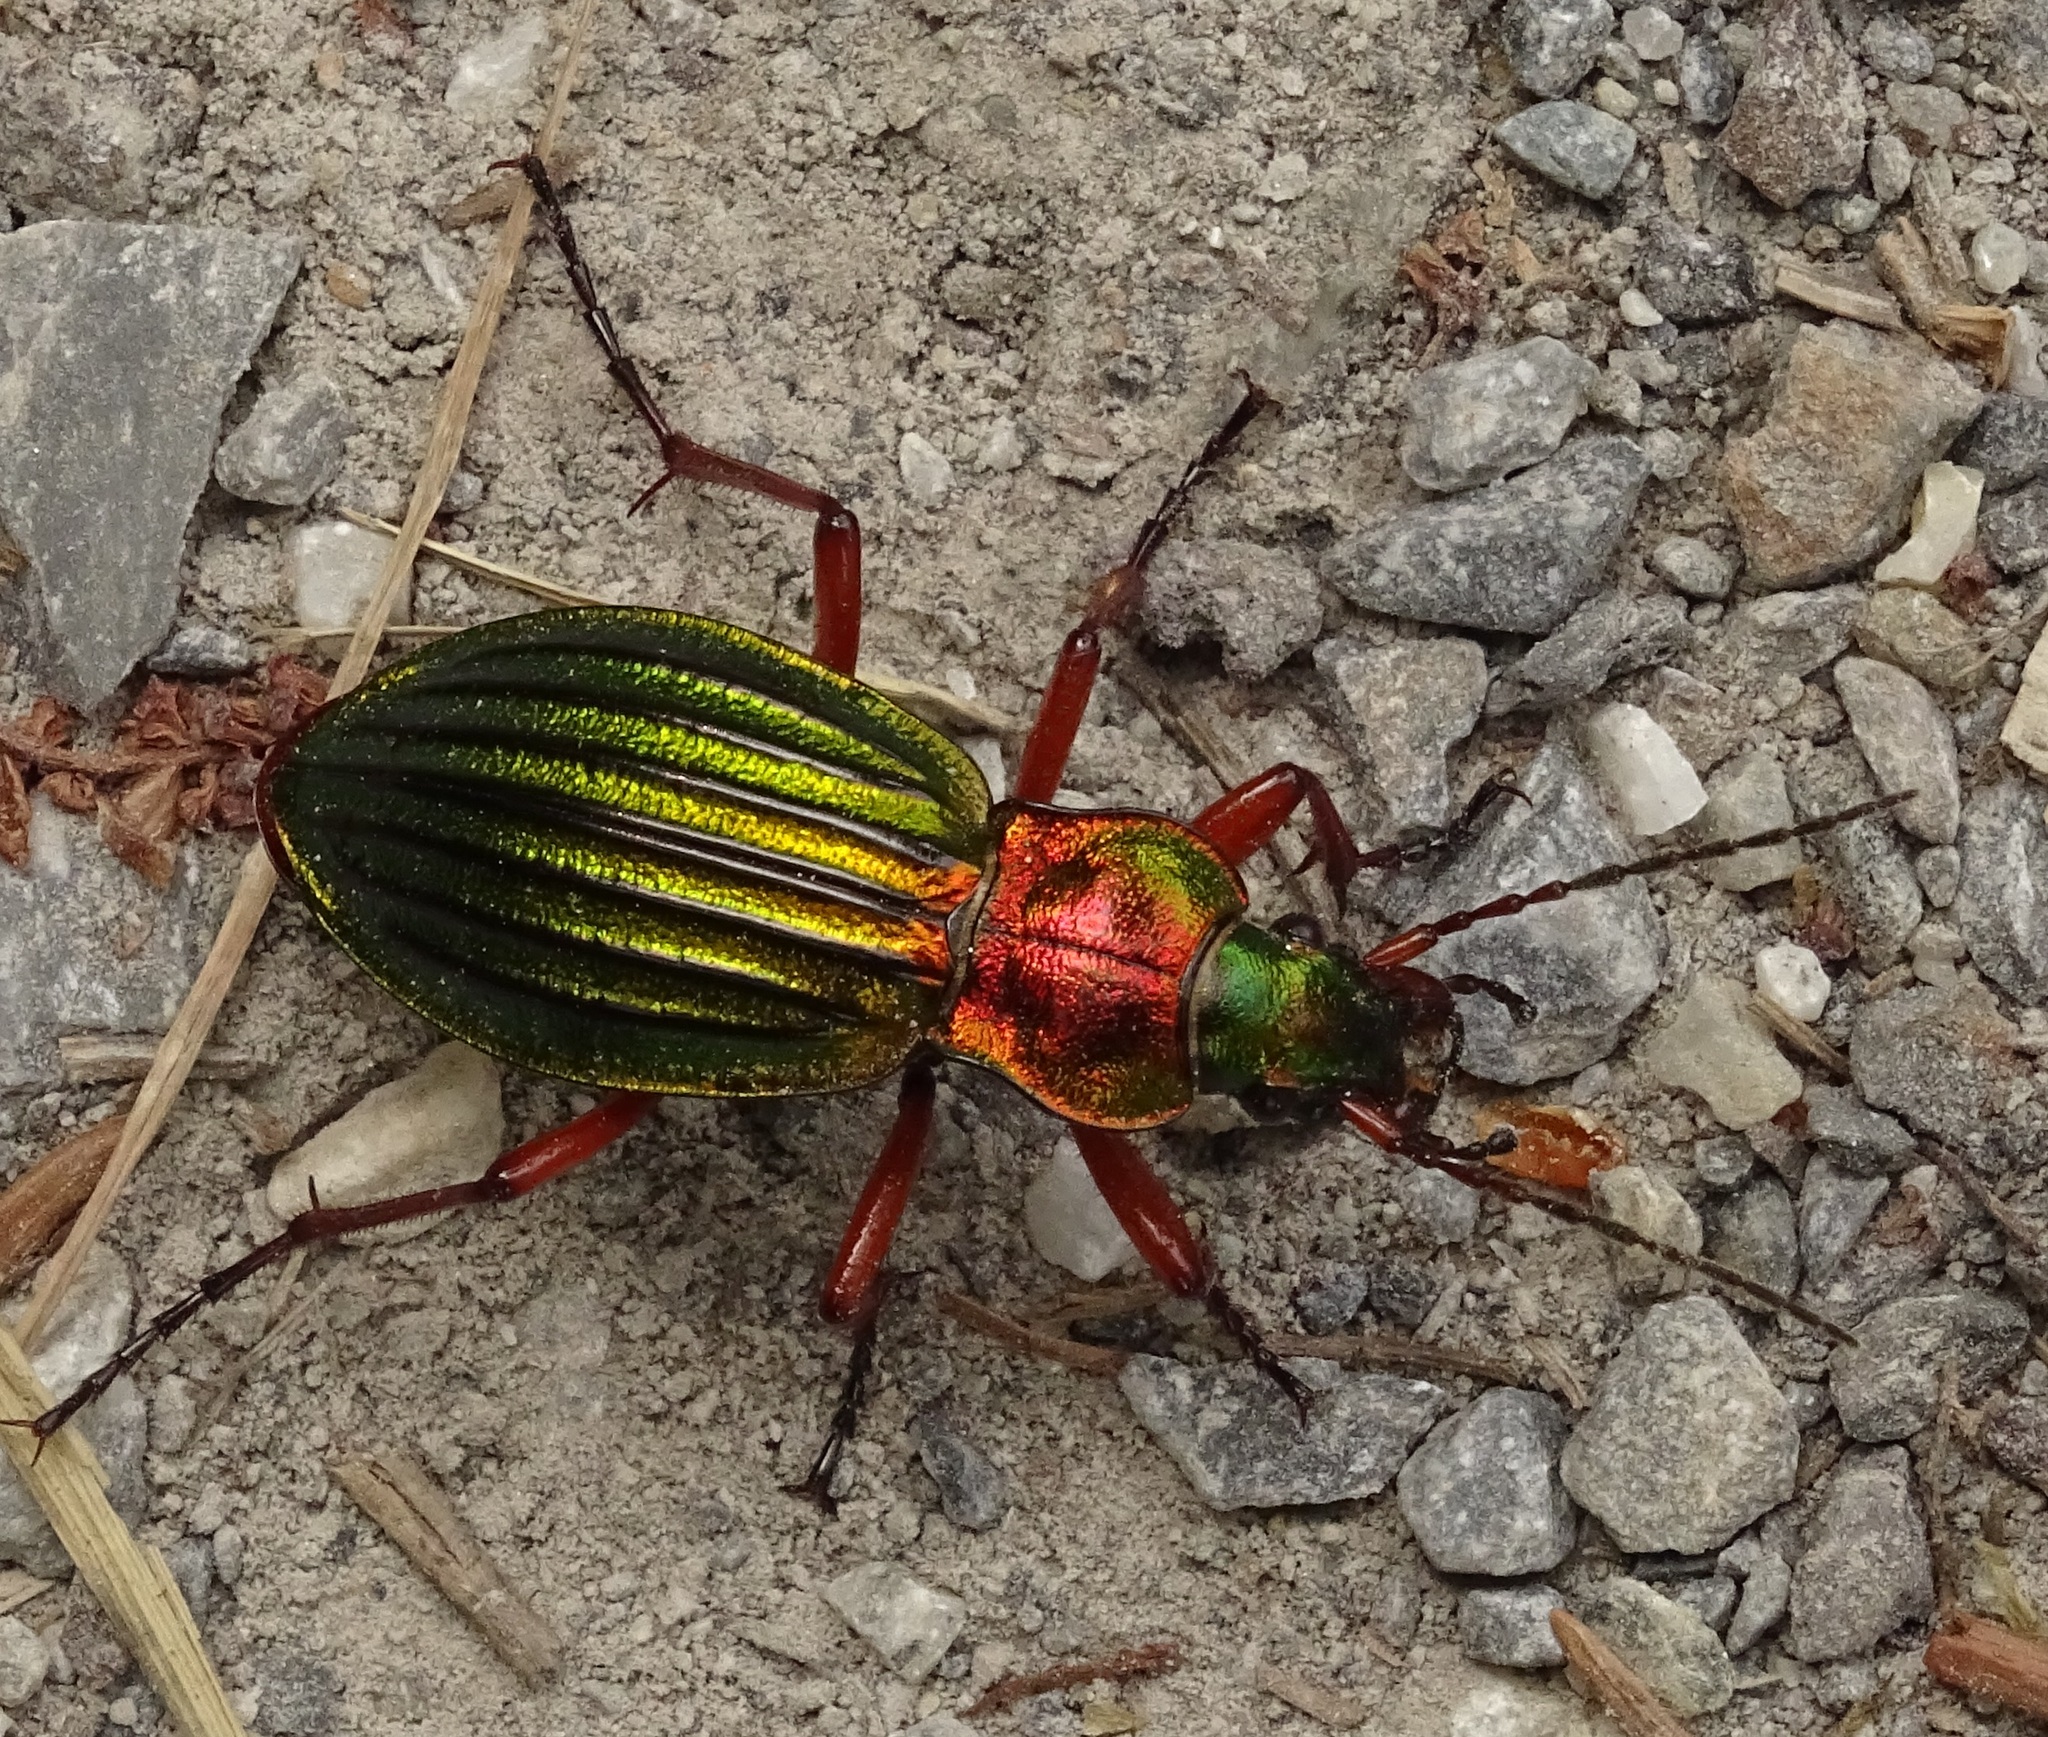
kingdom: Animalia
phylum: Arthropoda
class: Insecta
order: Coleoptera
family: Carabidae
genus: Carabus
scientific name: Carabus auronitens
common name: Carabus auronitens
